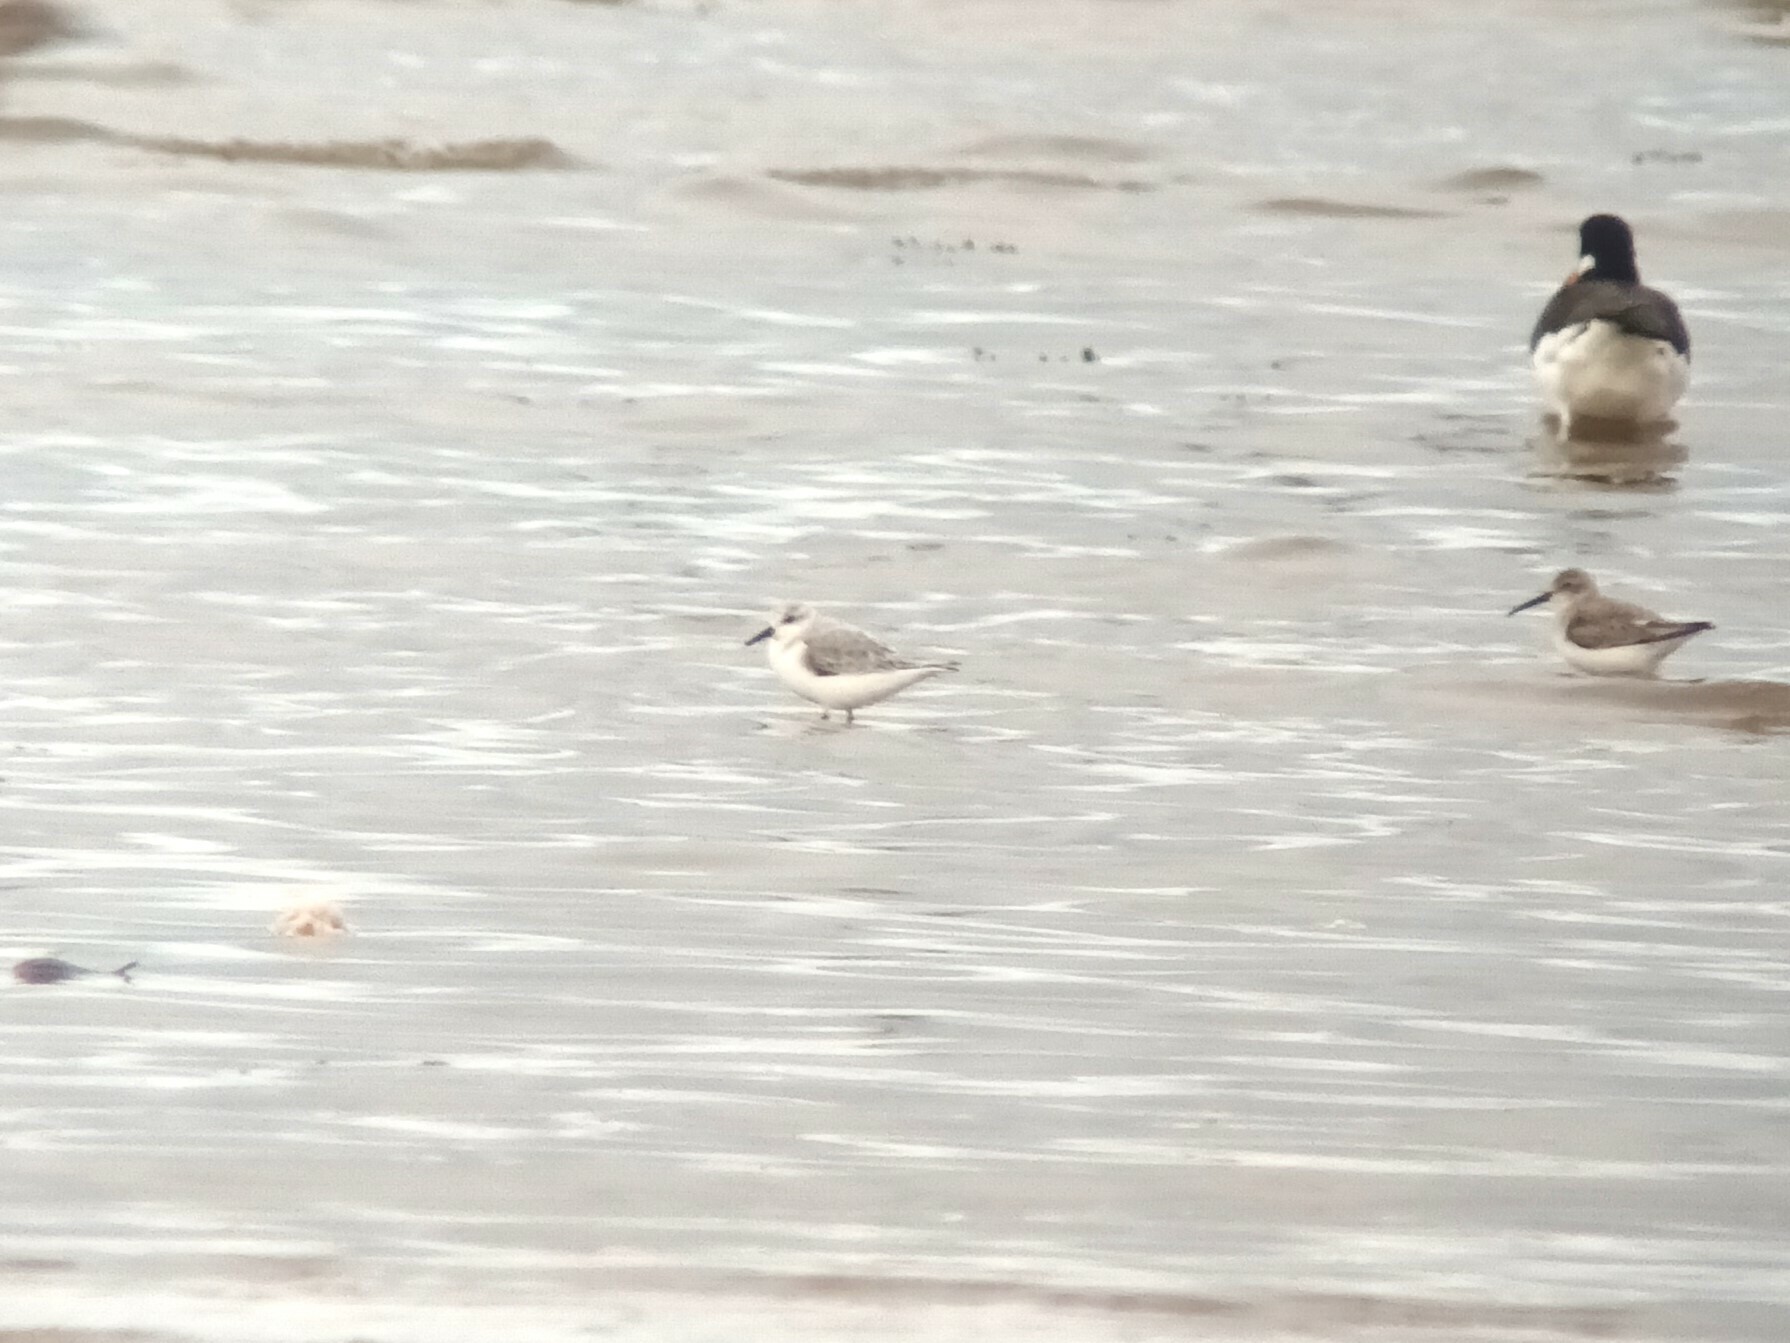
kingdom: Animalia
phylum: Chordata
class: Aves
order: Charadriiformes
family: Scolopacidae
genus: Calidris
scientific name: Calidris alba
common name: Sanderling
